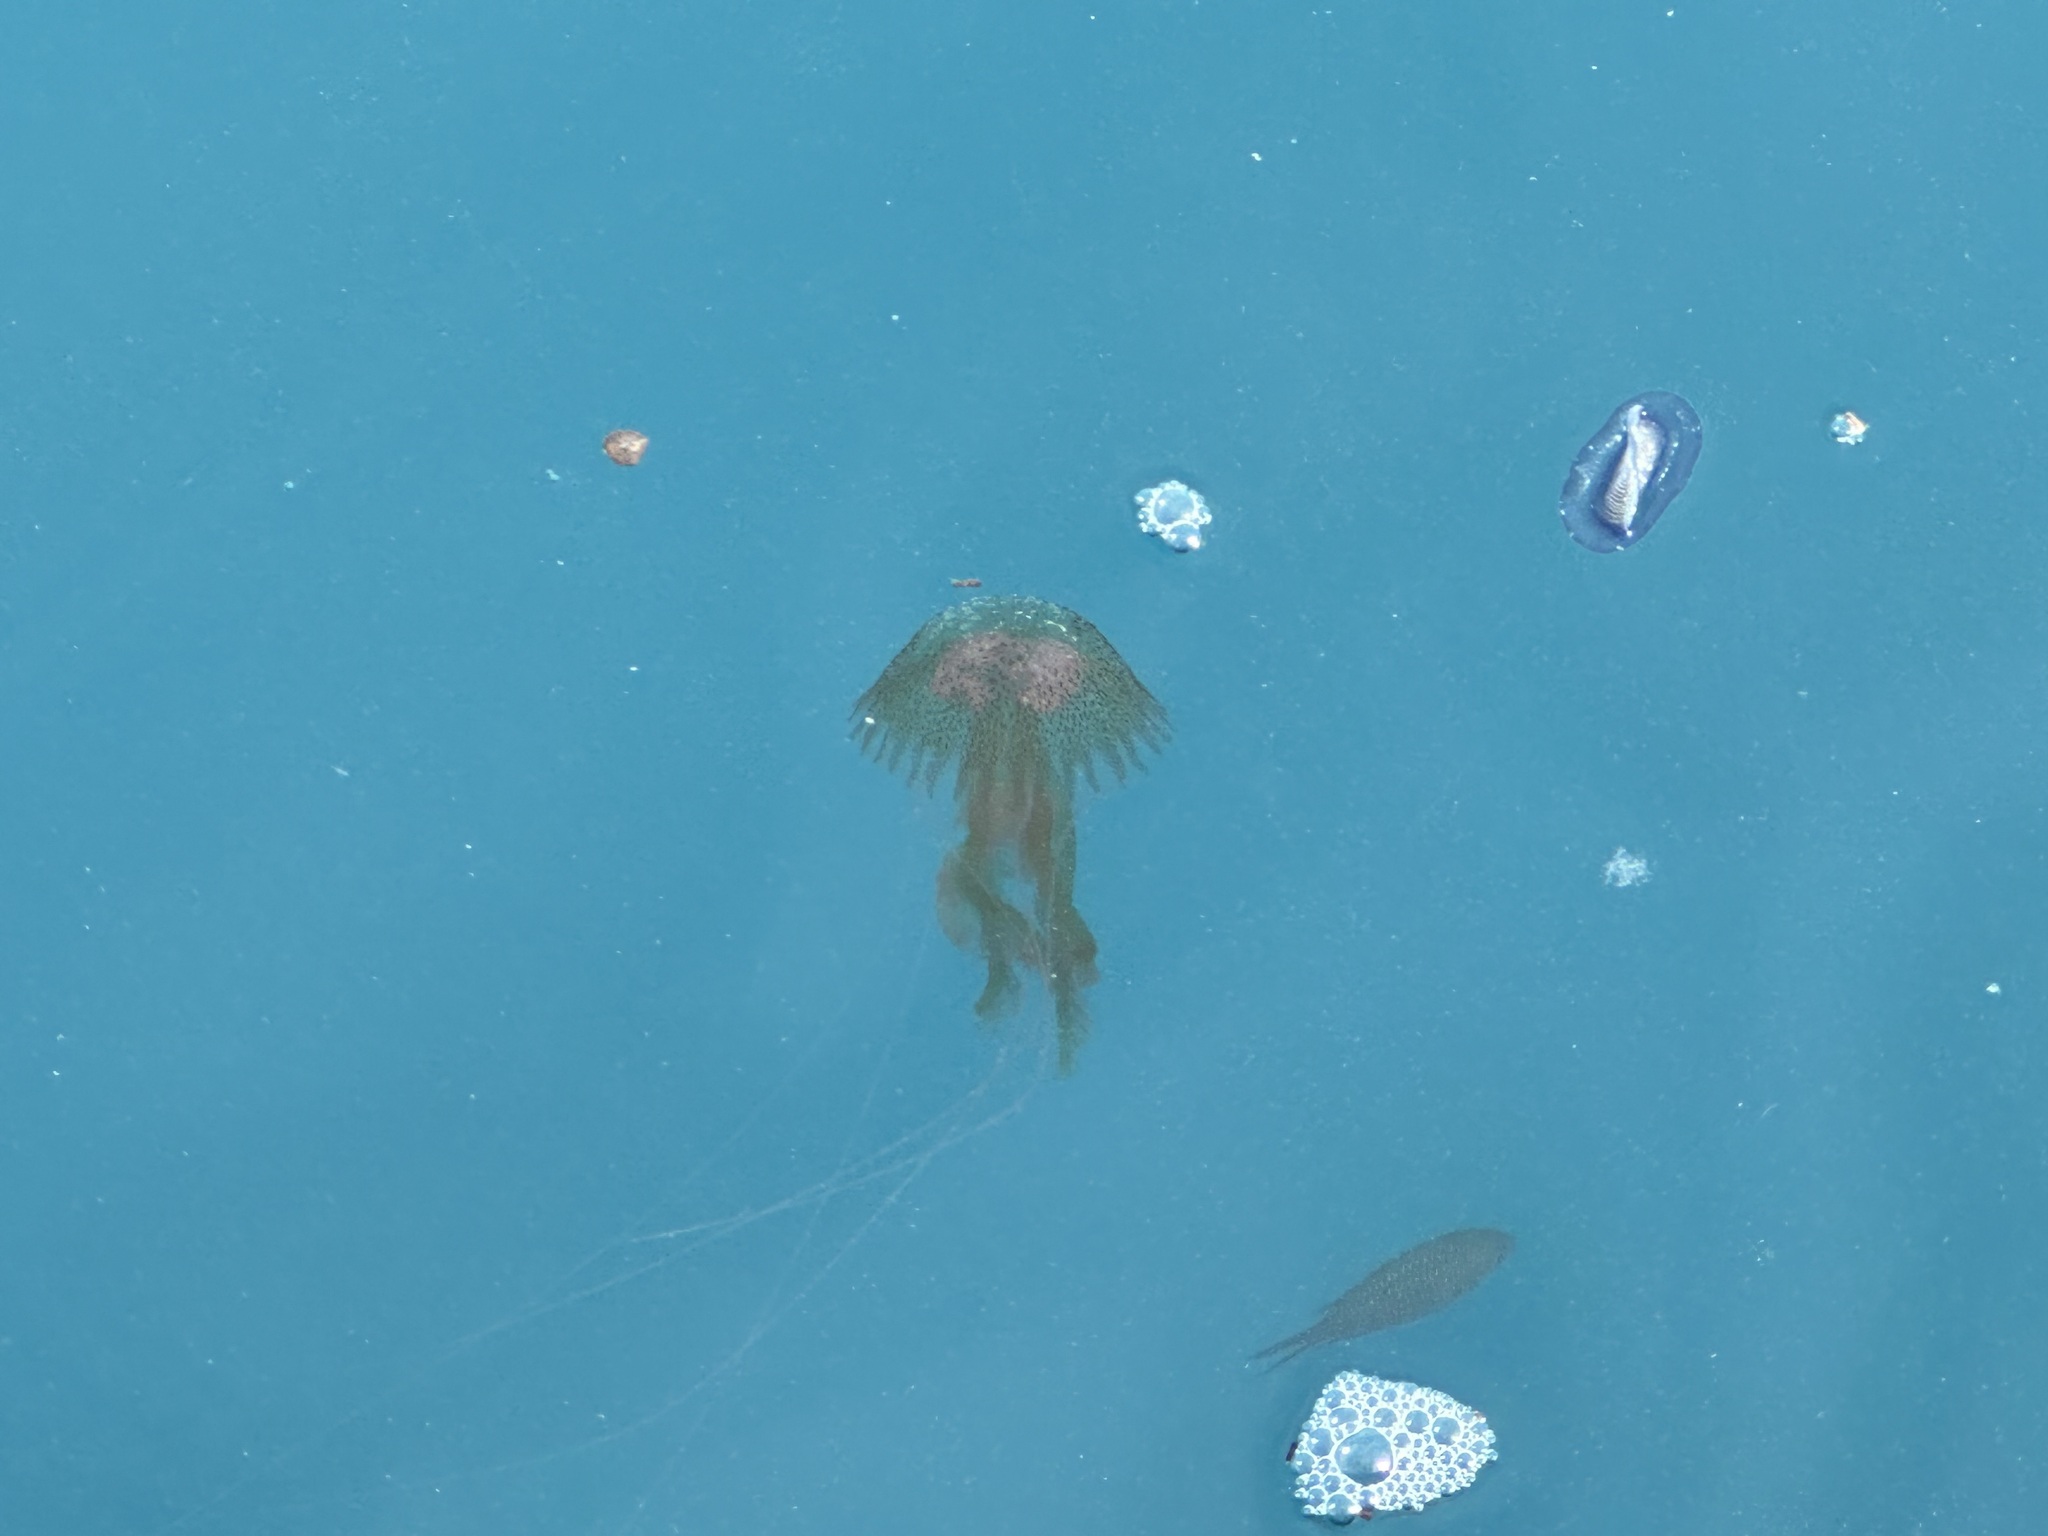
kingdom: Animalia
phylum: Cnidaria
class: Scyphozoa
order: Semaeostomeae
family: Pelagiidae
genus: Pelagia
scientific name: Pelagia noctiluca
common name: Mauve stinger
